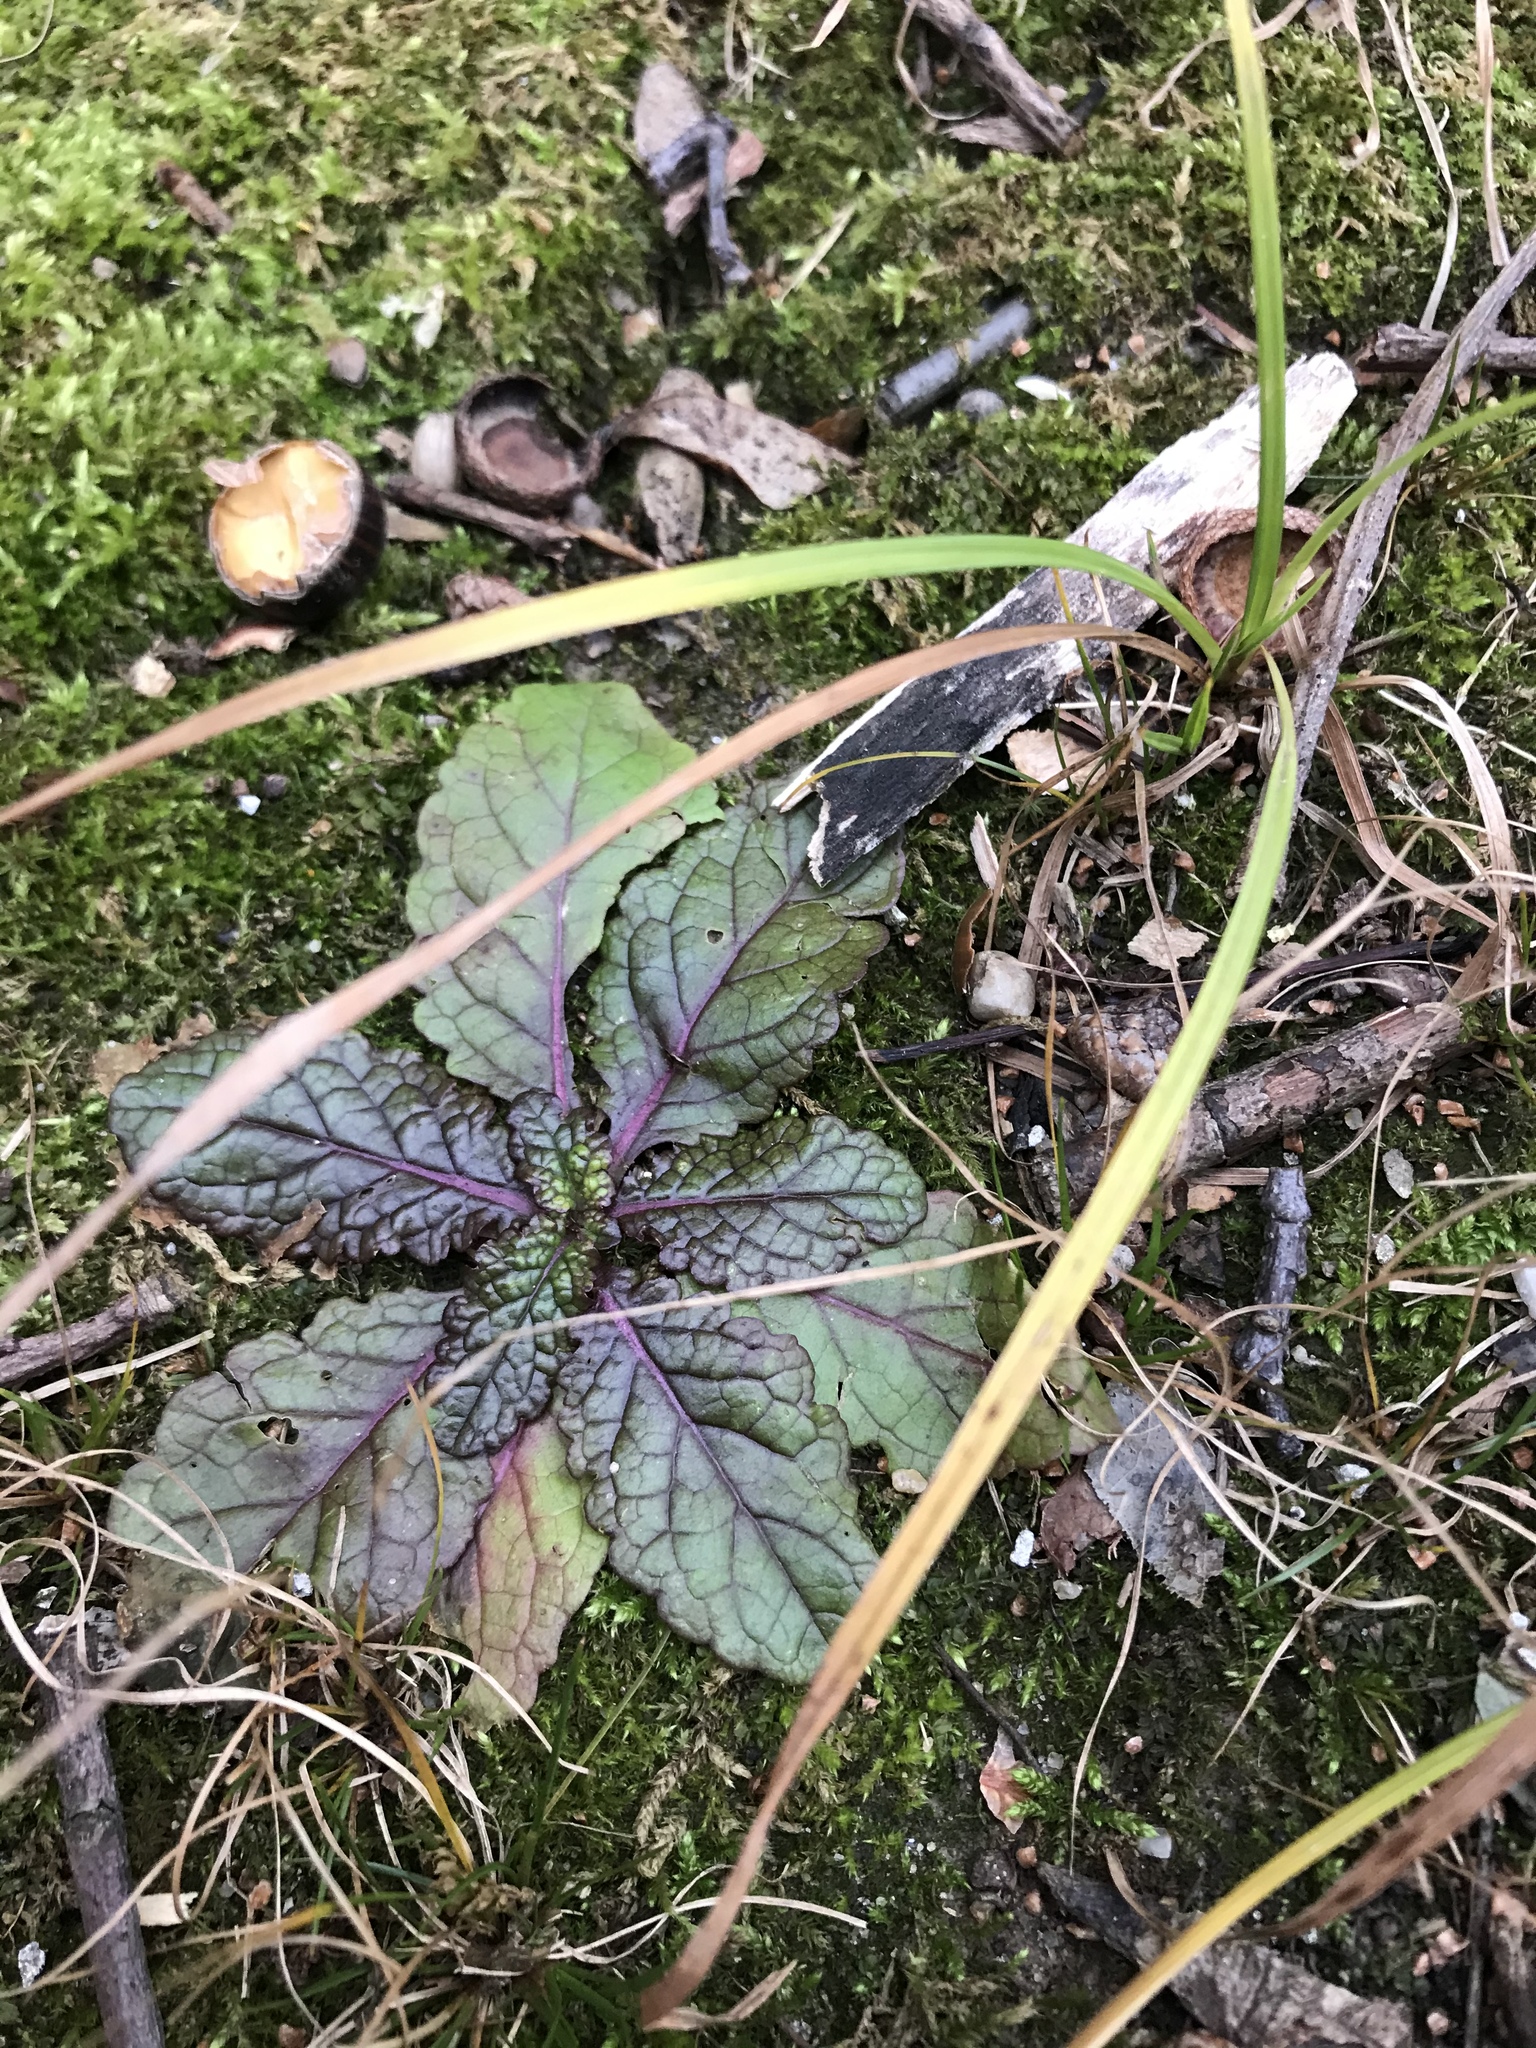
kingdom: Plantae
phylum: Tracheophyta
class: Magnoliopsida
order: Lamiales
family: Scrophulariaceae
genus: Verbascum
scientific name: Verbascum blattaria
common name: Moth mullein
